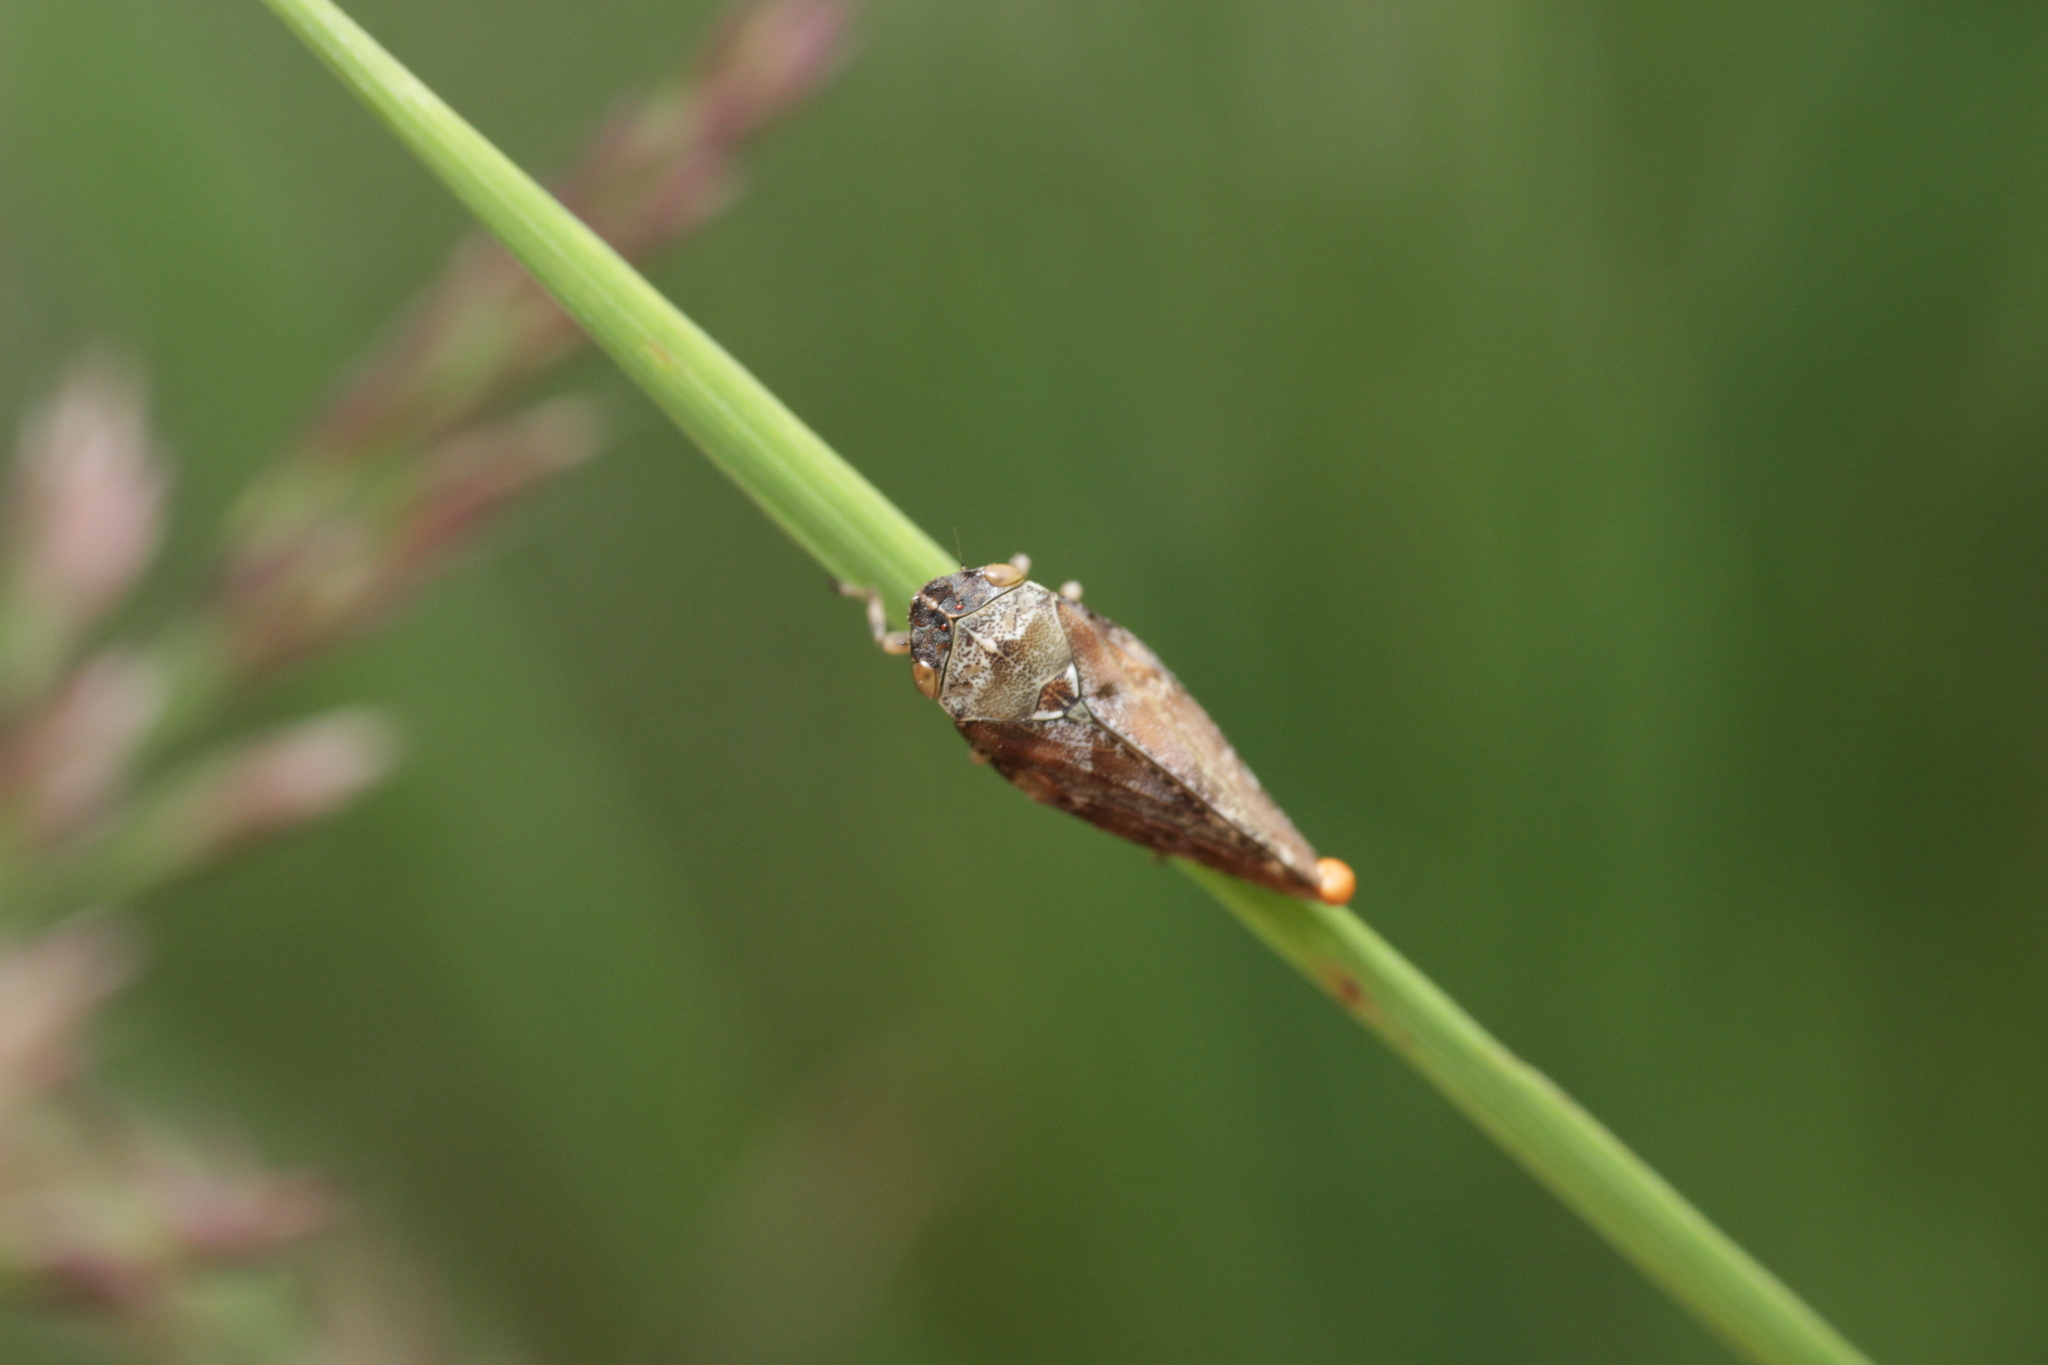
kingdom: Animalia
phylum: Arthropoda
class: Insecta
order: Hemiptera
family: Aphrophoridae
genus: Aphrophora
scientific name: Aphrophora corticea
